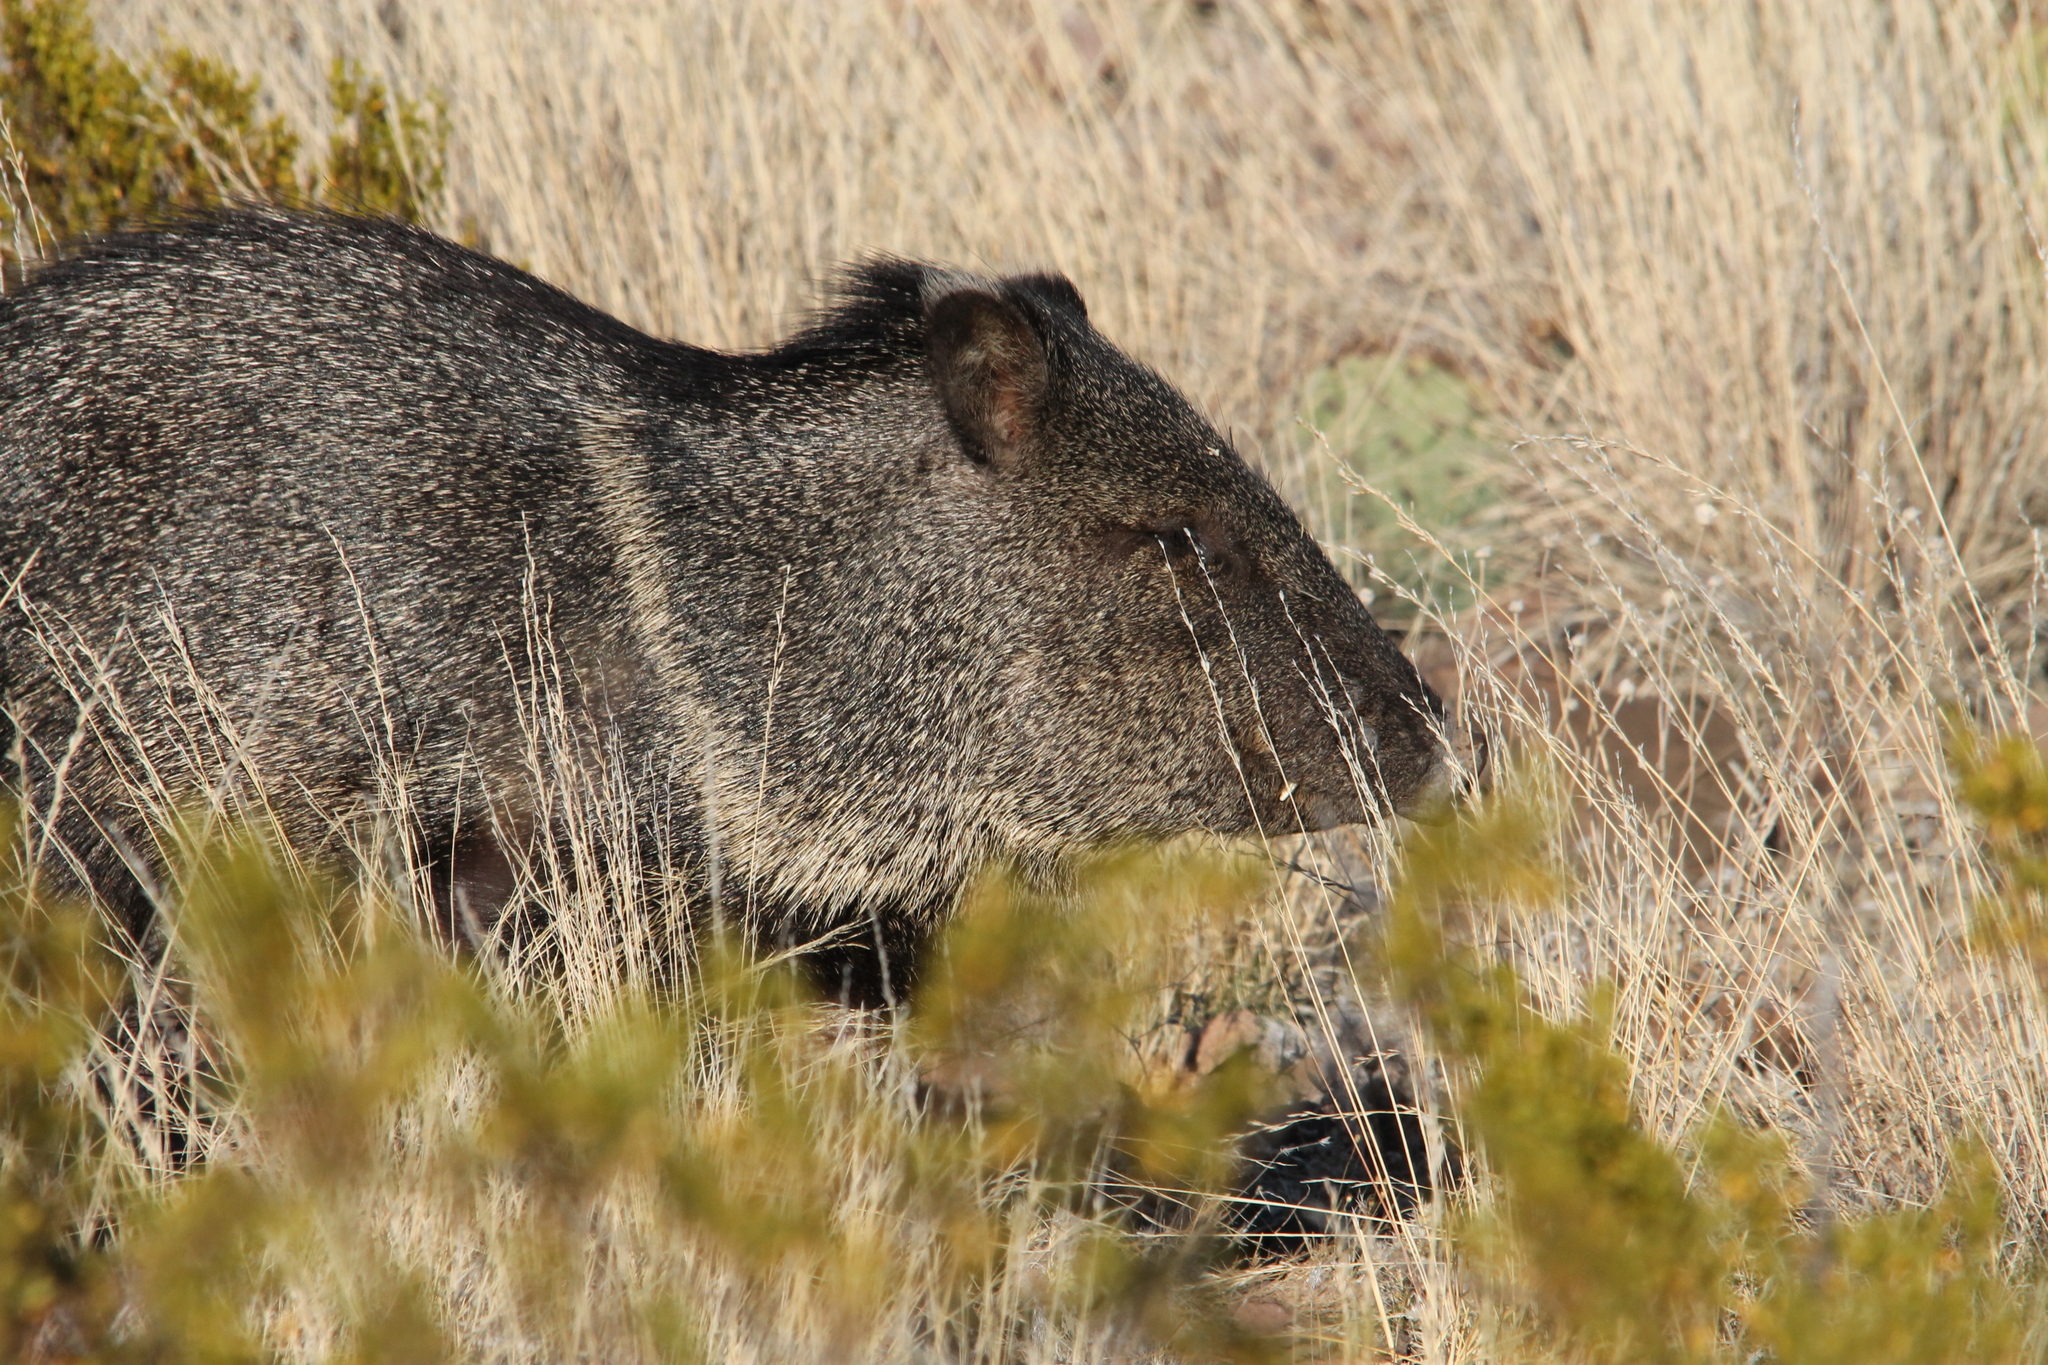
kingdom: Animalia
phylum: Chordata
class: Mammalia
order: Artiodactyla
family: Tayassuidae
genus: Pecari
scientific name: Pecari tajacu
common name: Collared peccary
